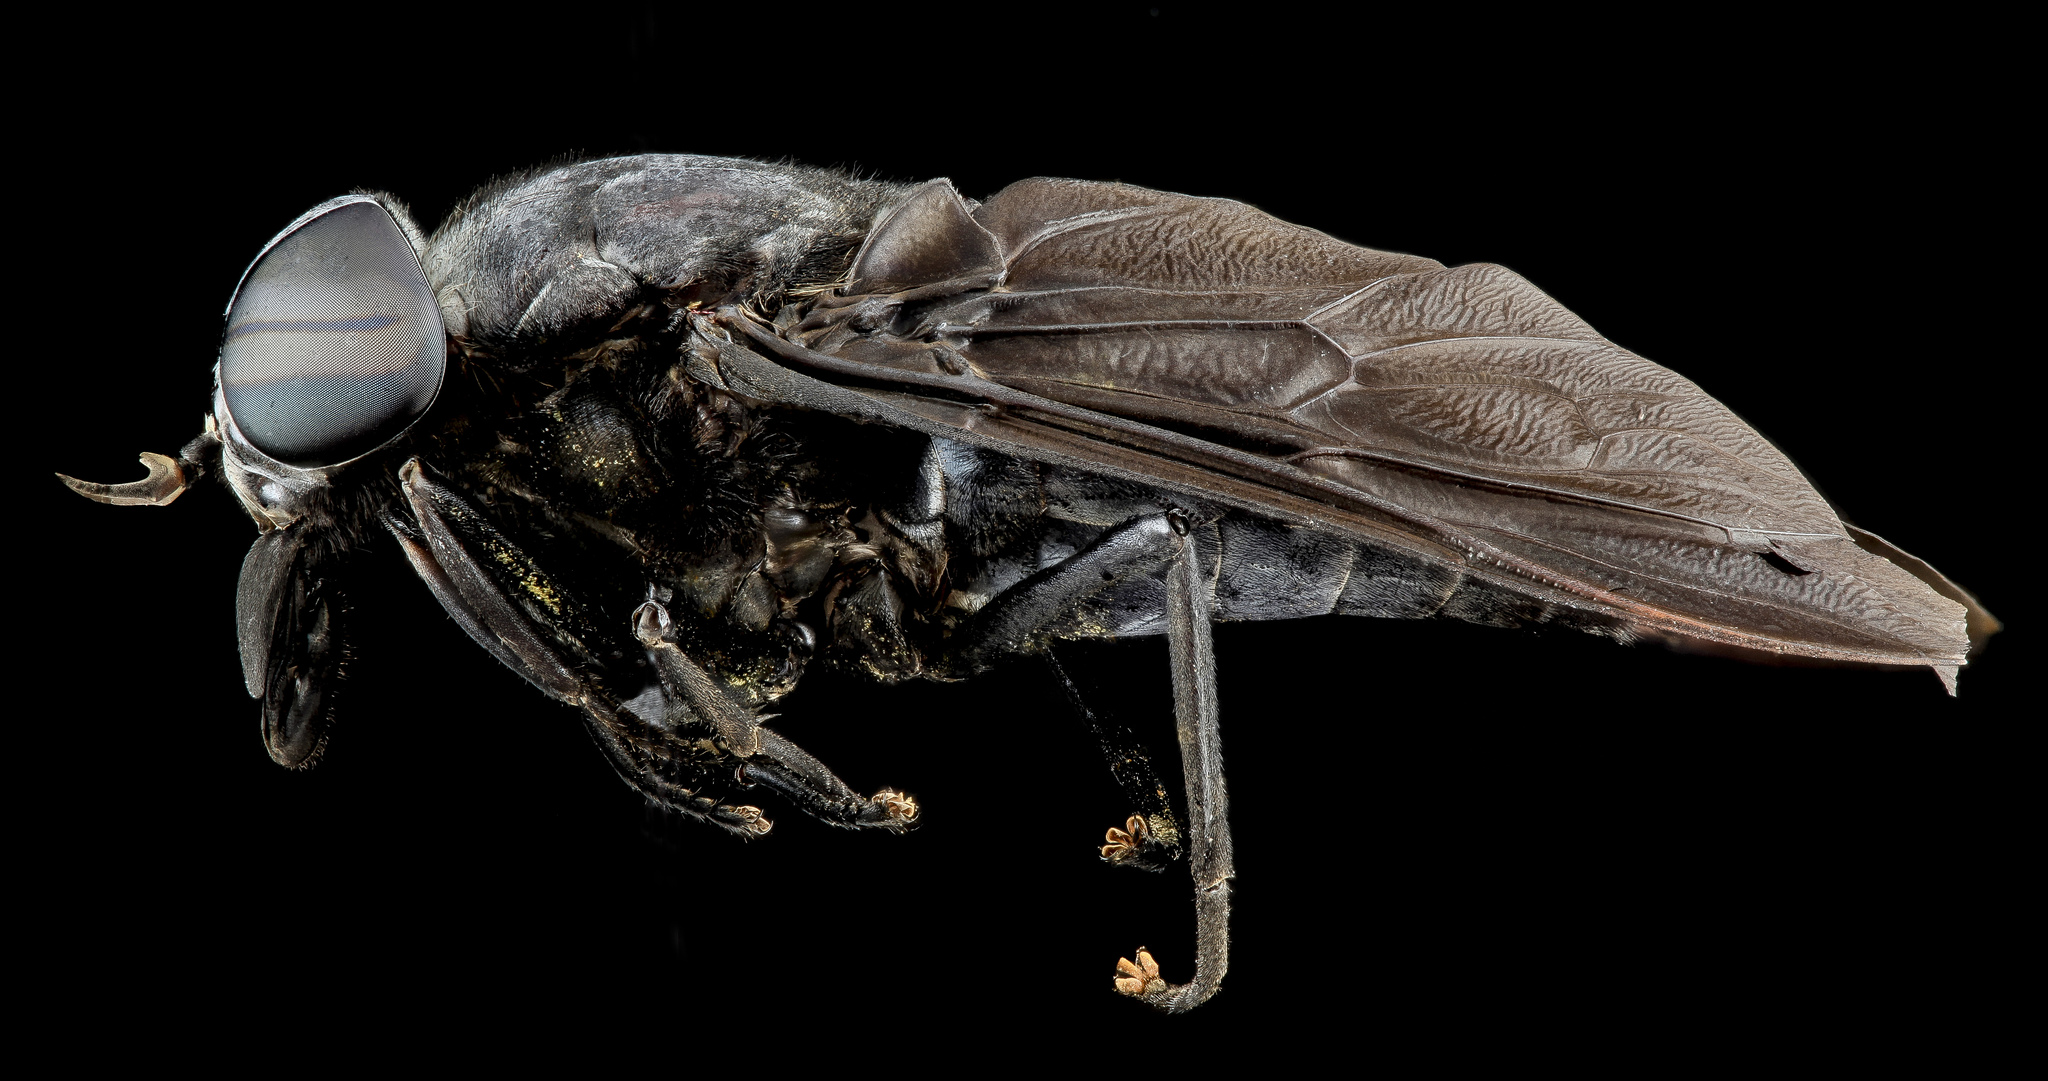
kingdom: Animalia
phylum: Arthropoda
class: Insecta
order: Diptera
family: Tabanidae
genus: Tabanus
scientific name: Tabanus atratus
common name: Black horse fly
